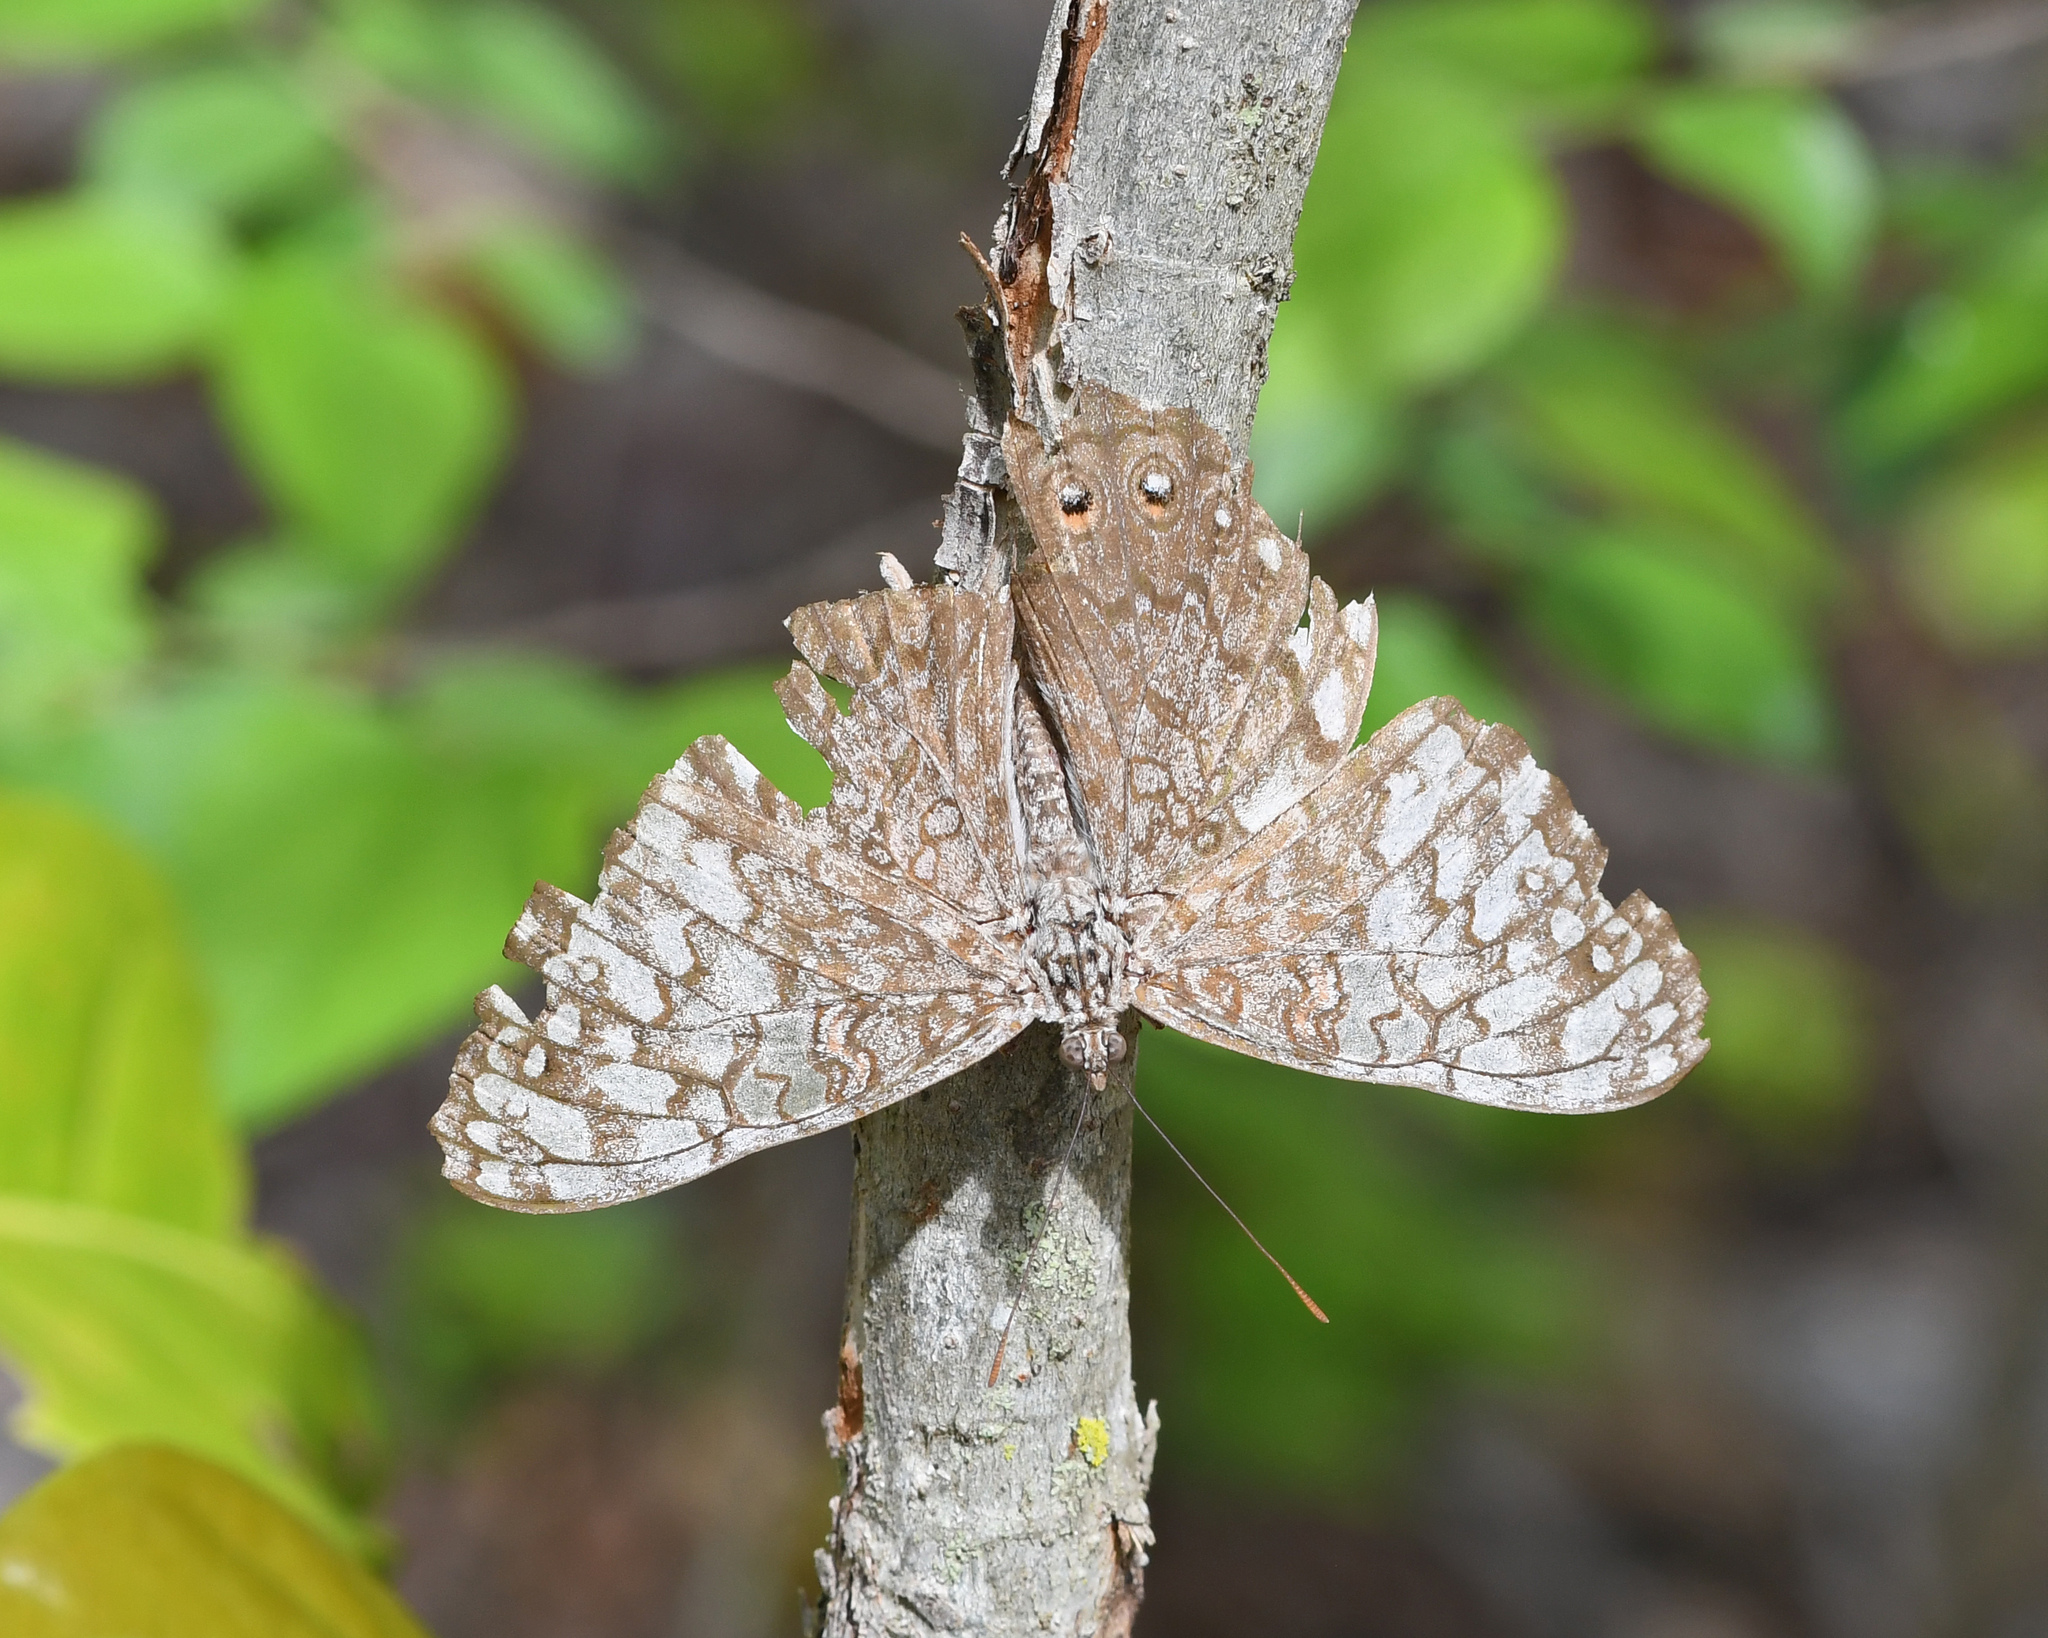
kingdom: Animalia
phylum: Arthropoda
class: Insecta
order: Lepidoptera
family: Nymphalidae
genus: Hamadryas
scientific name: Hamadryas februa
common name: Gray cracker
